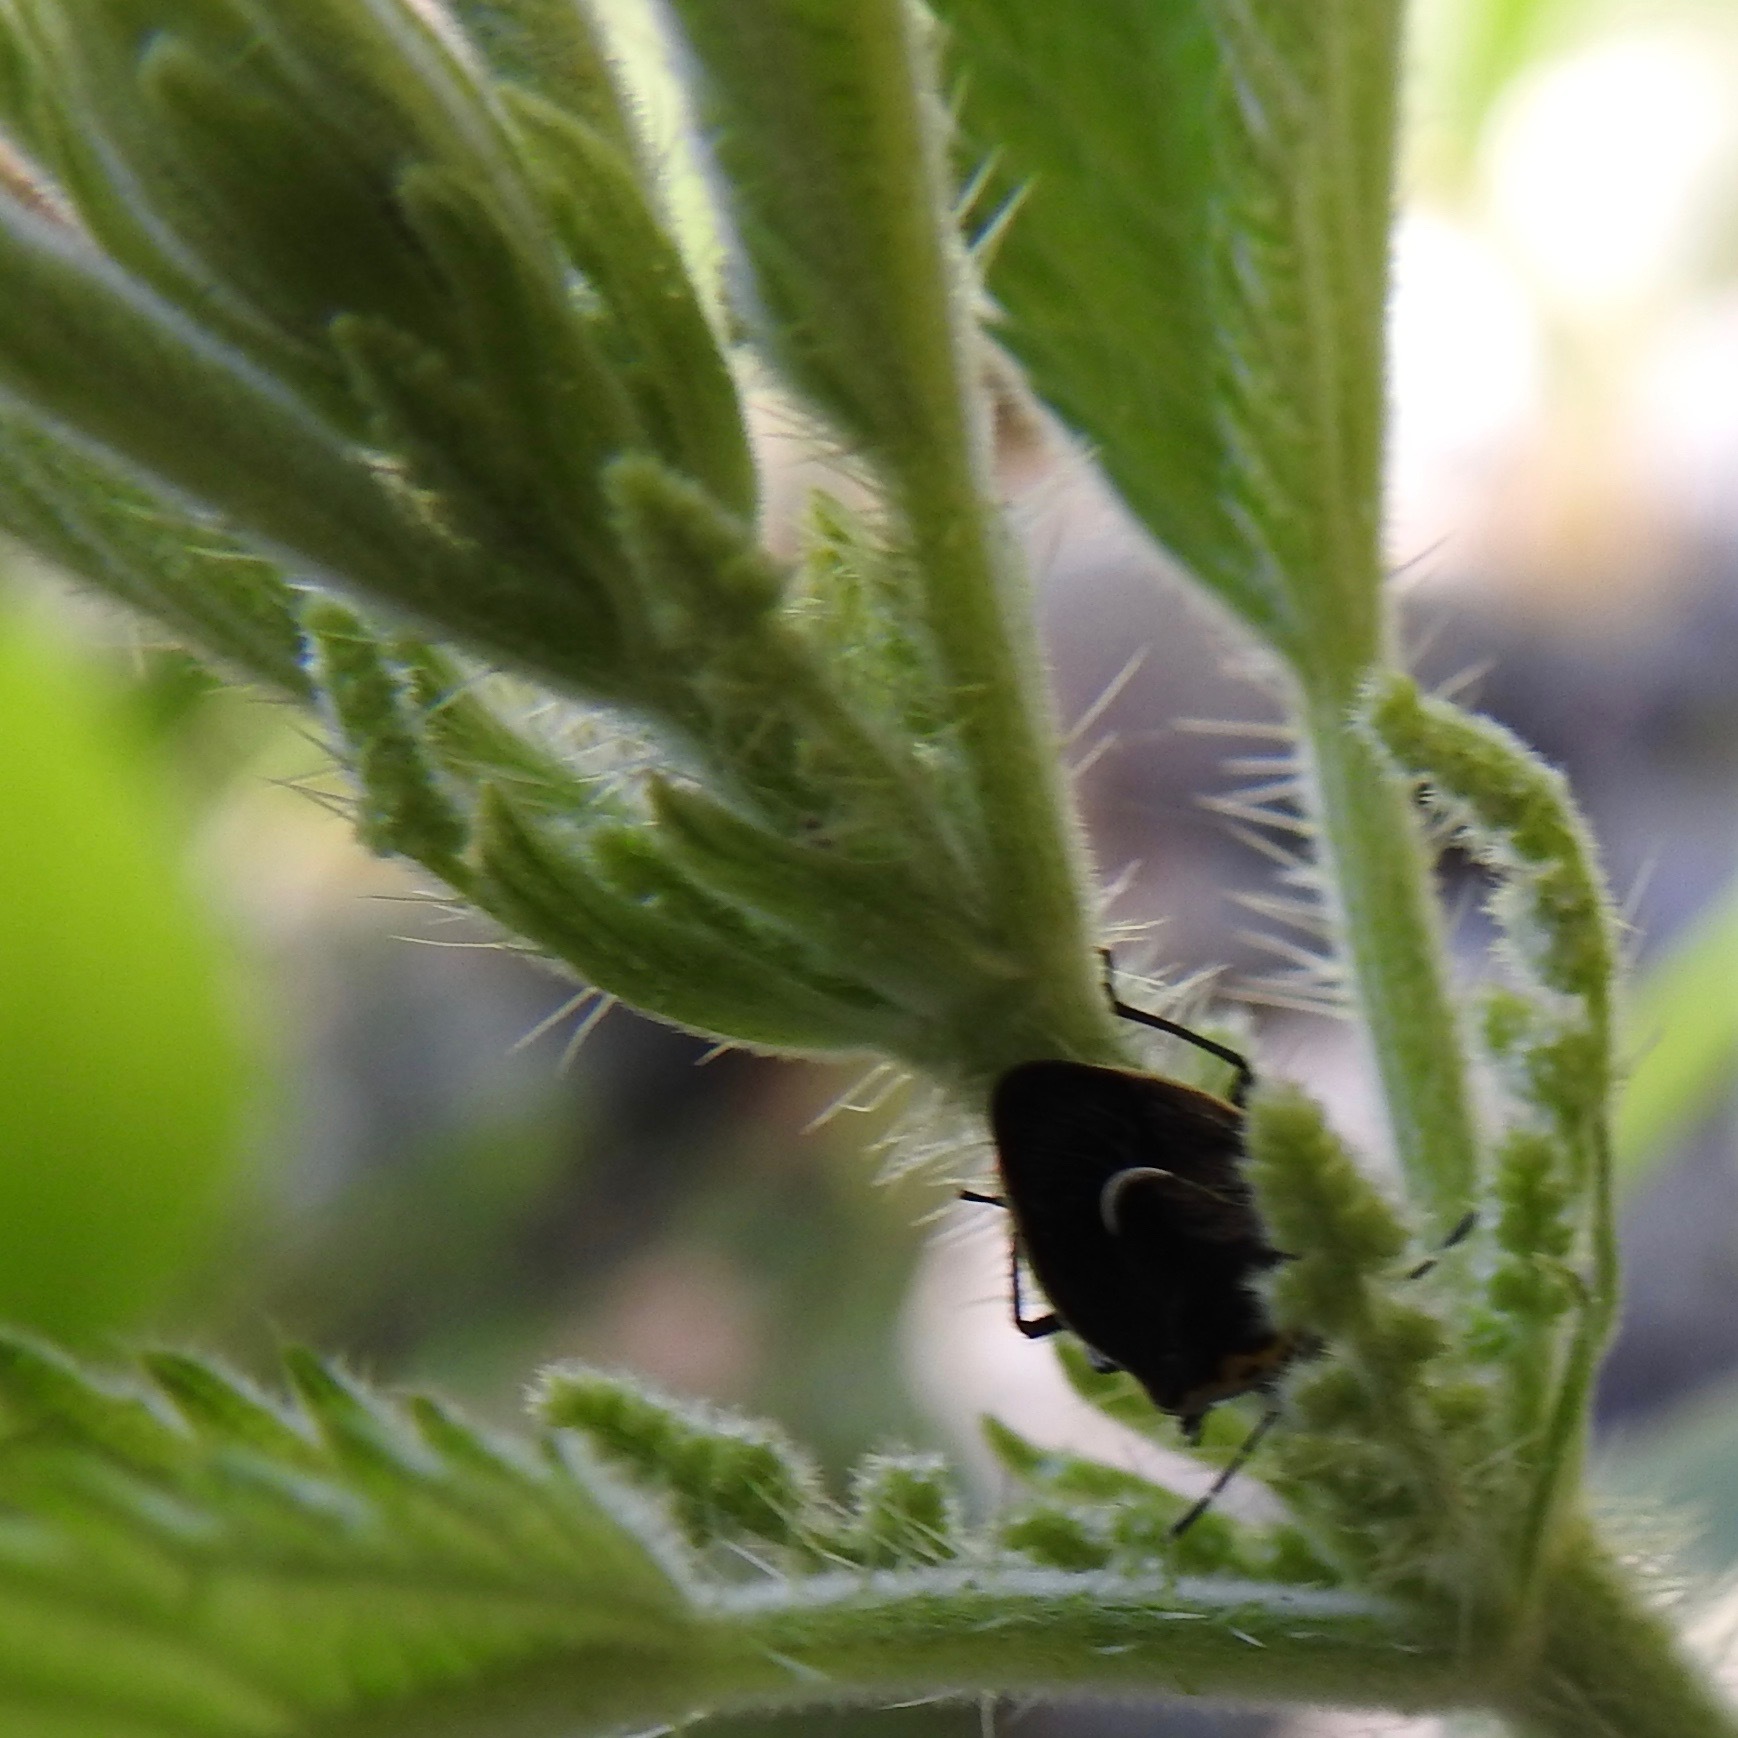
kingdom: Animalia
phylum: Arthropoda
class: Insecta
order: Hemiptera
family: Pentatomidae
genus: Cosmopepla
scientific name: Cosmopepla conspicillaris
